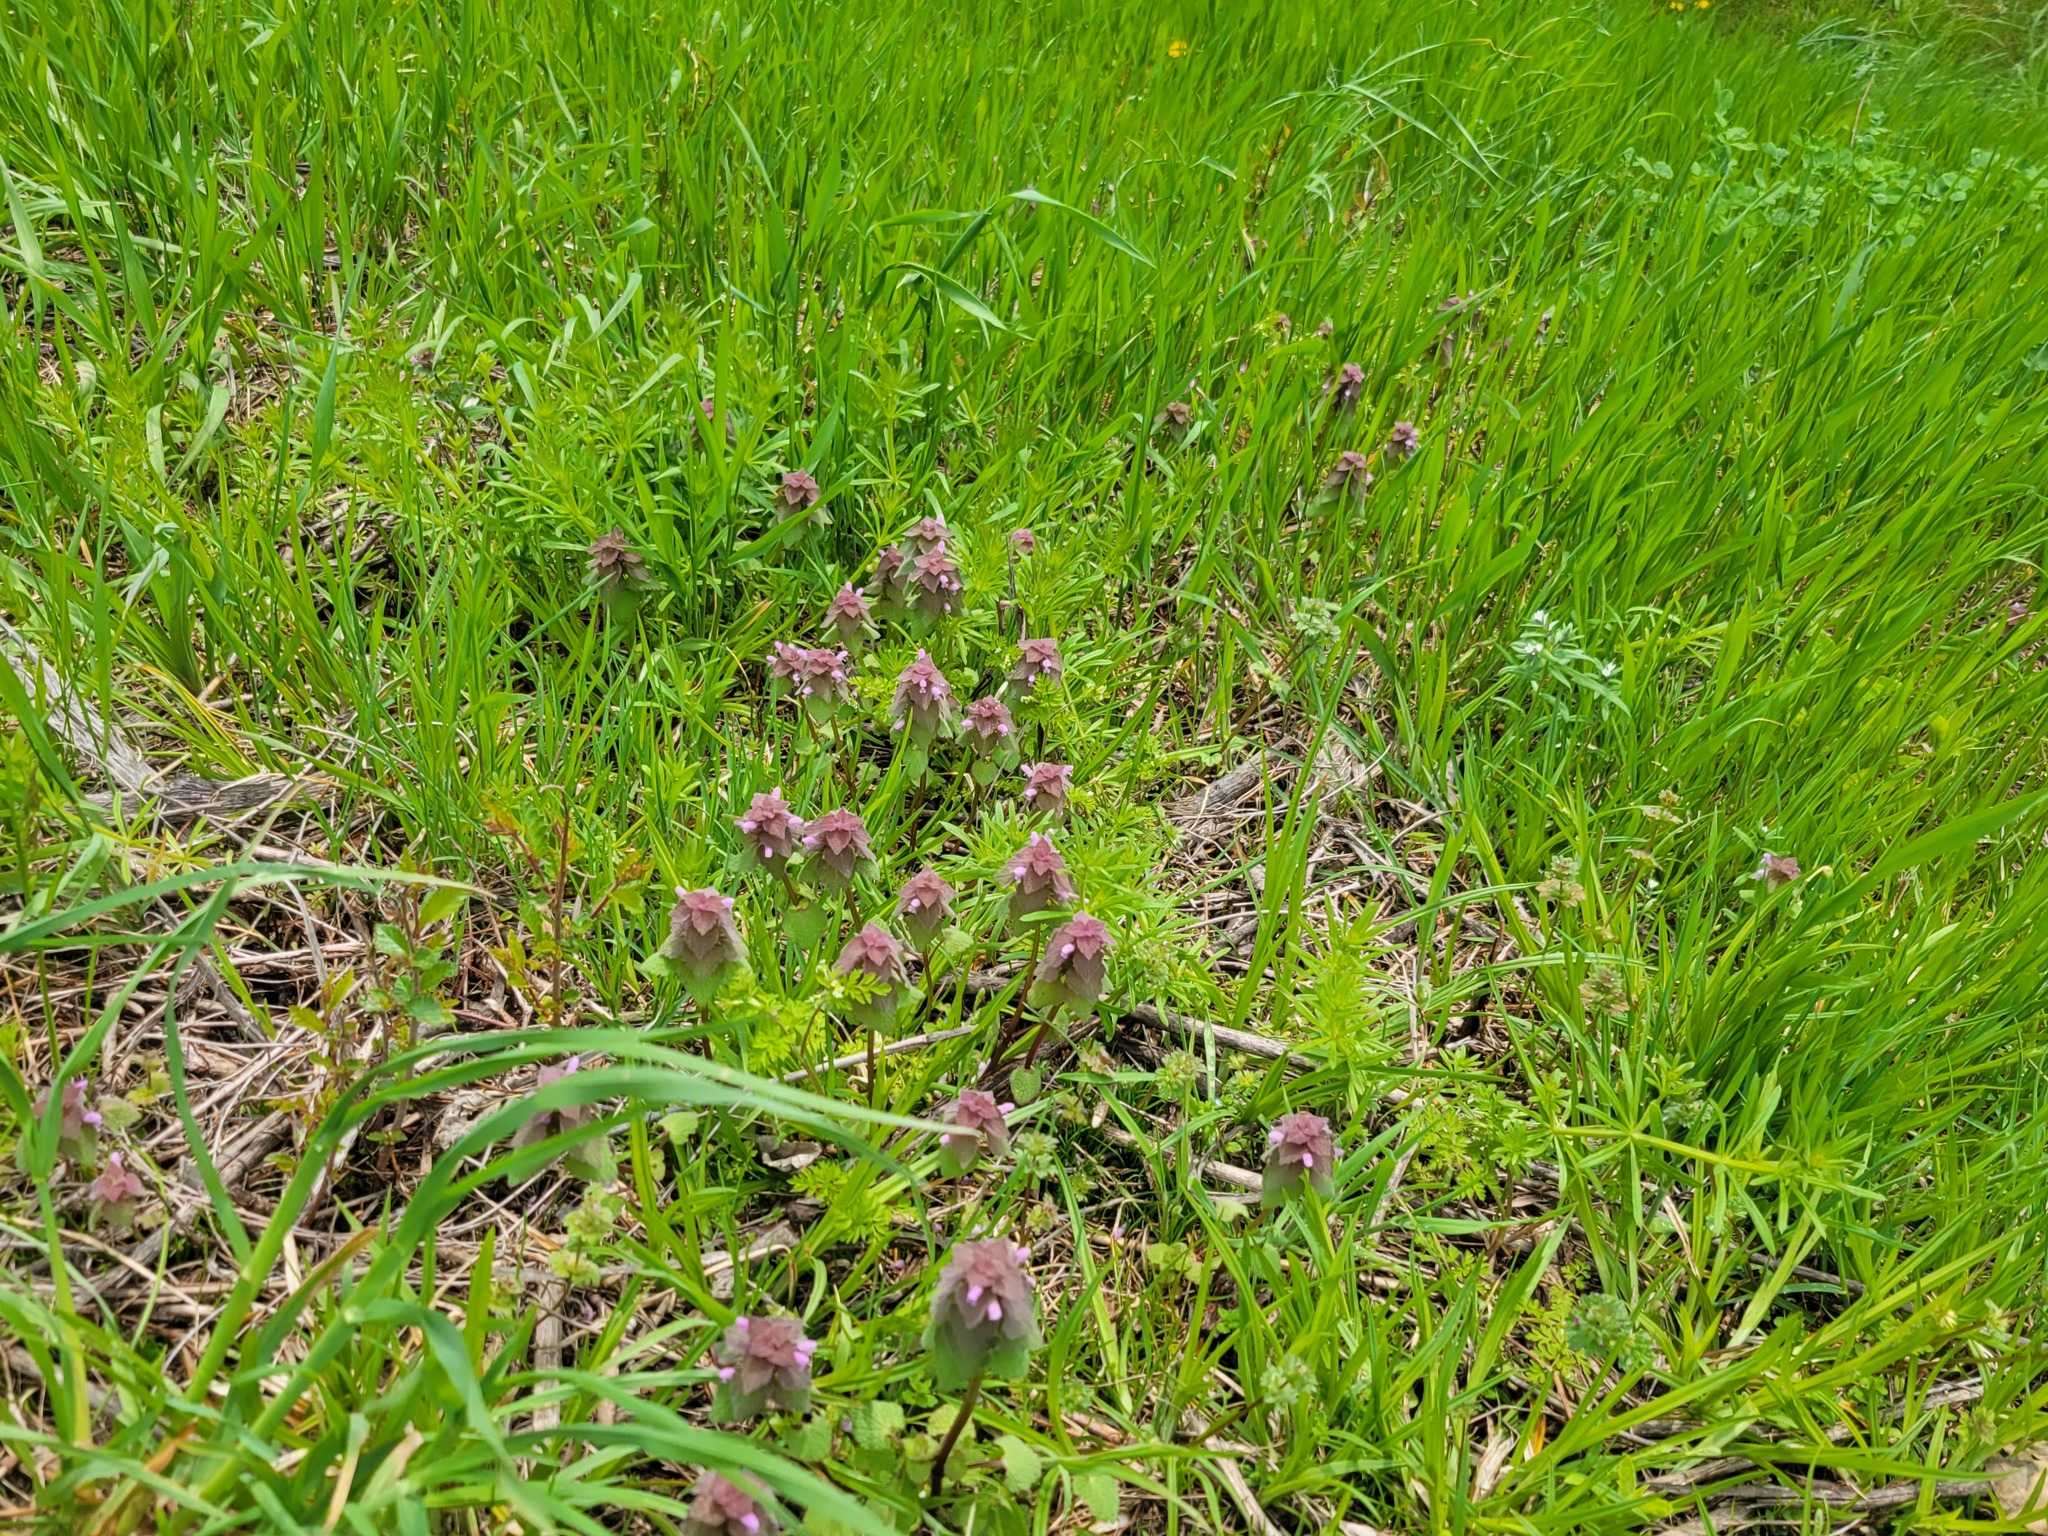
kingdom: Plantae
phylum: Tracheophyta
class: Magnoliopsida
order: Lamiales
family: Lamiaceae
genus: Lamium
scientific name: Lamium purpureum
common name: Red dead-nettle
